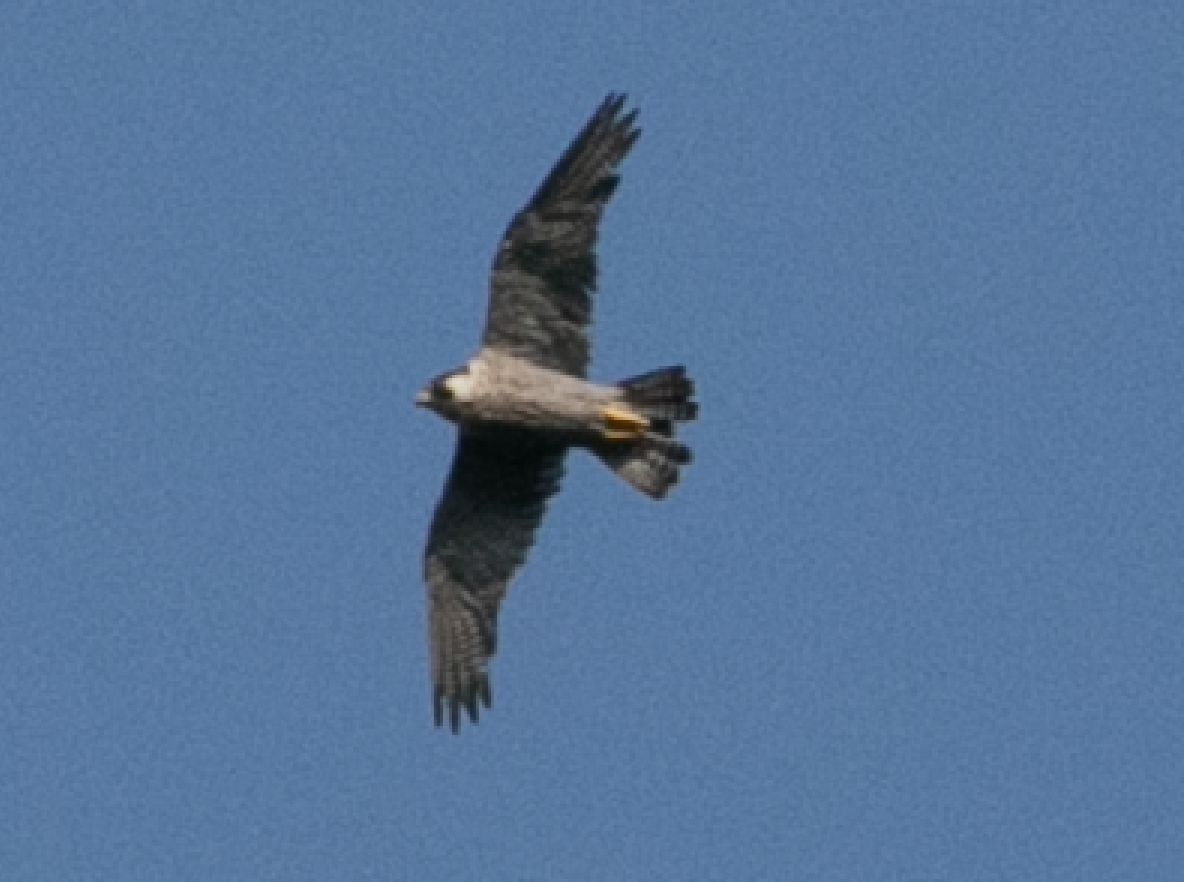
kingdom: Animalia
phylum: Chordata
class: Aves
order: Falconiformes
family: Falconidae
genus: Falco
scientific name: Falco peregrinus
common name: Peregrine falcon
